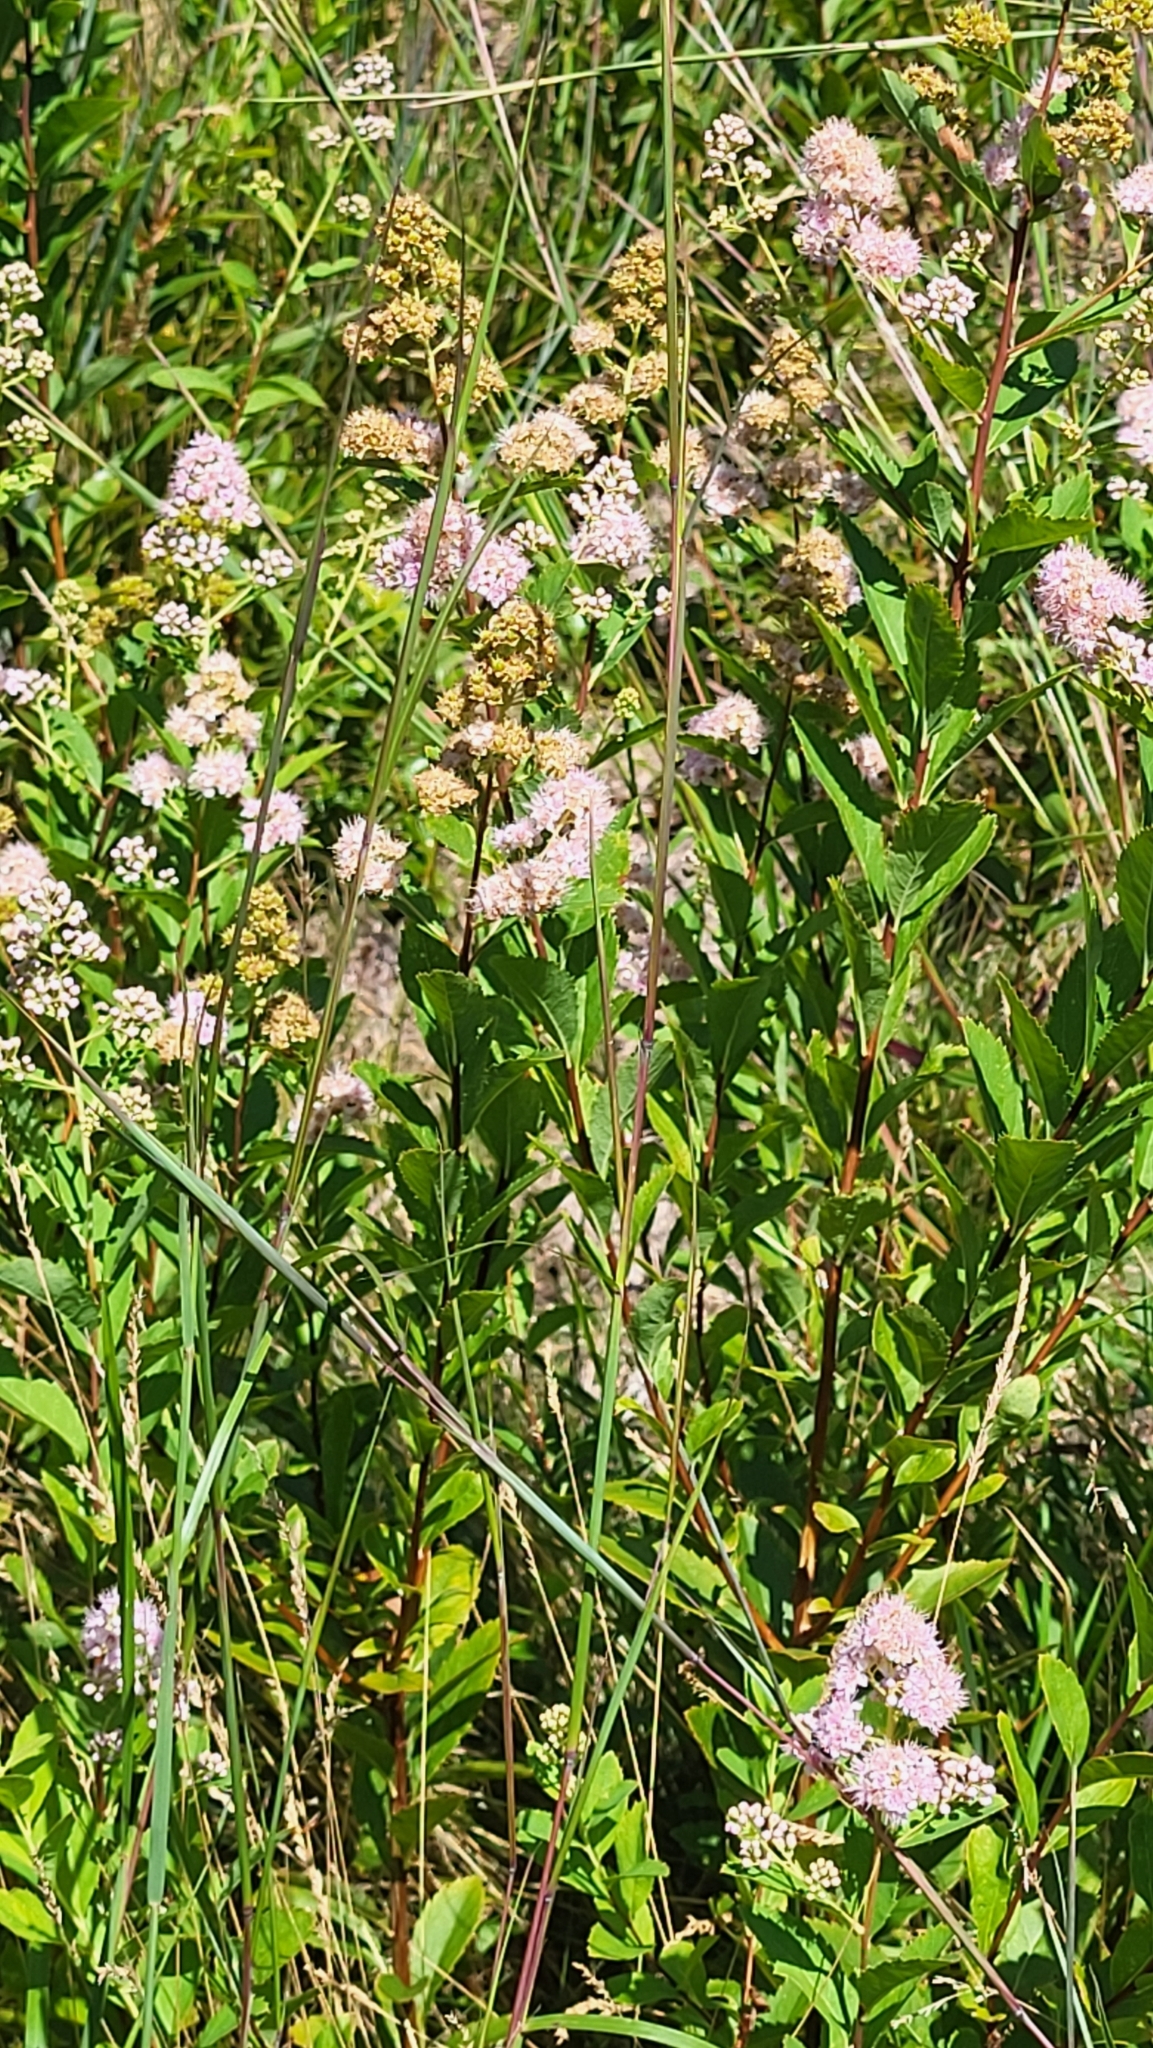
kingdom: Plantae
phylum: Tracheophyta
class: Magnoliopsida
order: Rosales
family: Rosaceae
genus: Spiraea
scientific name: Spiraea alba
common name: Pale bridewort
